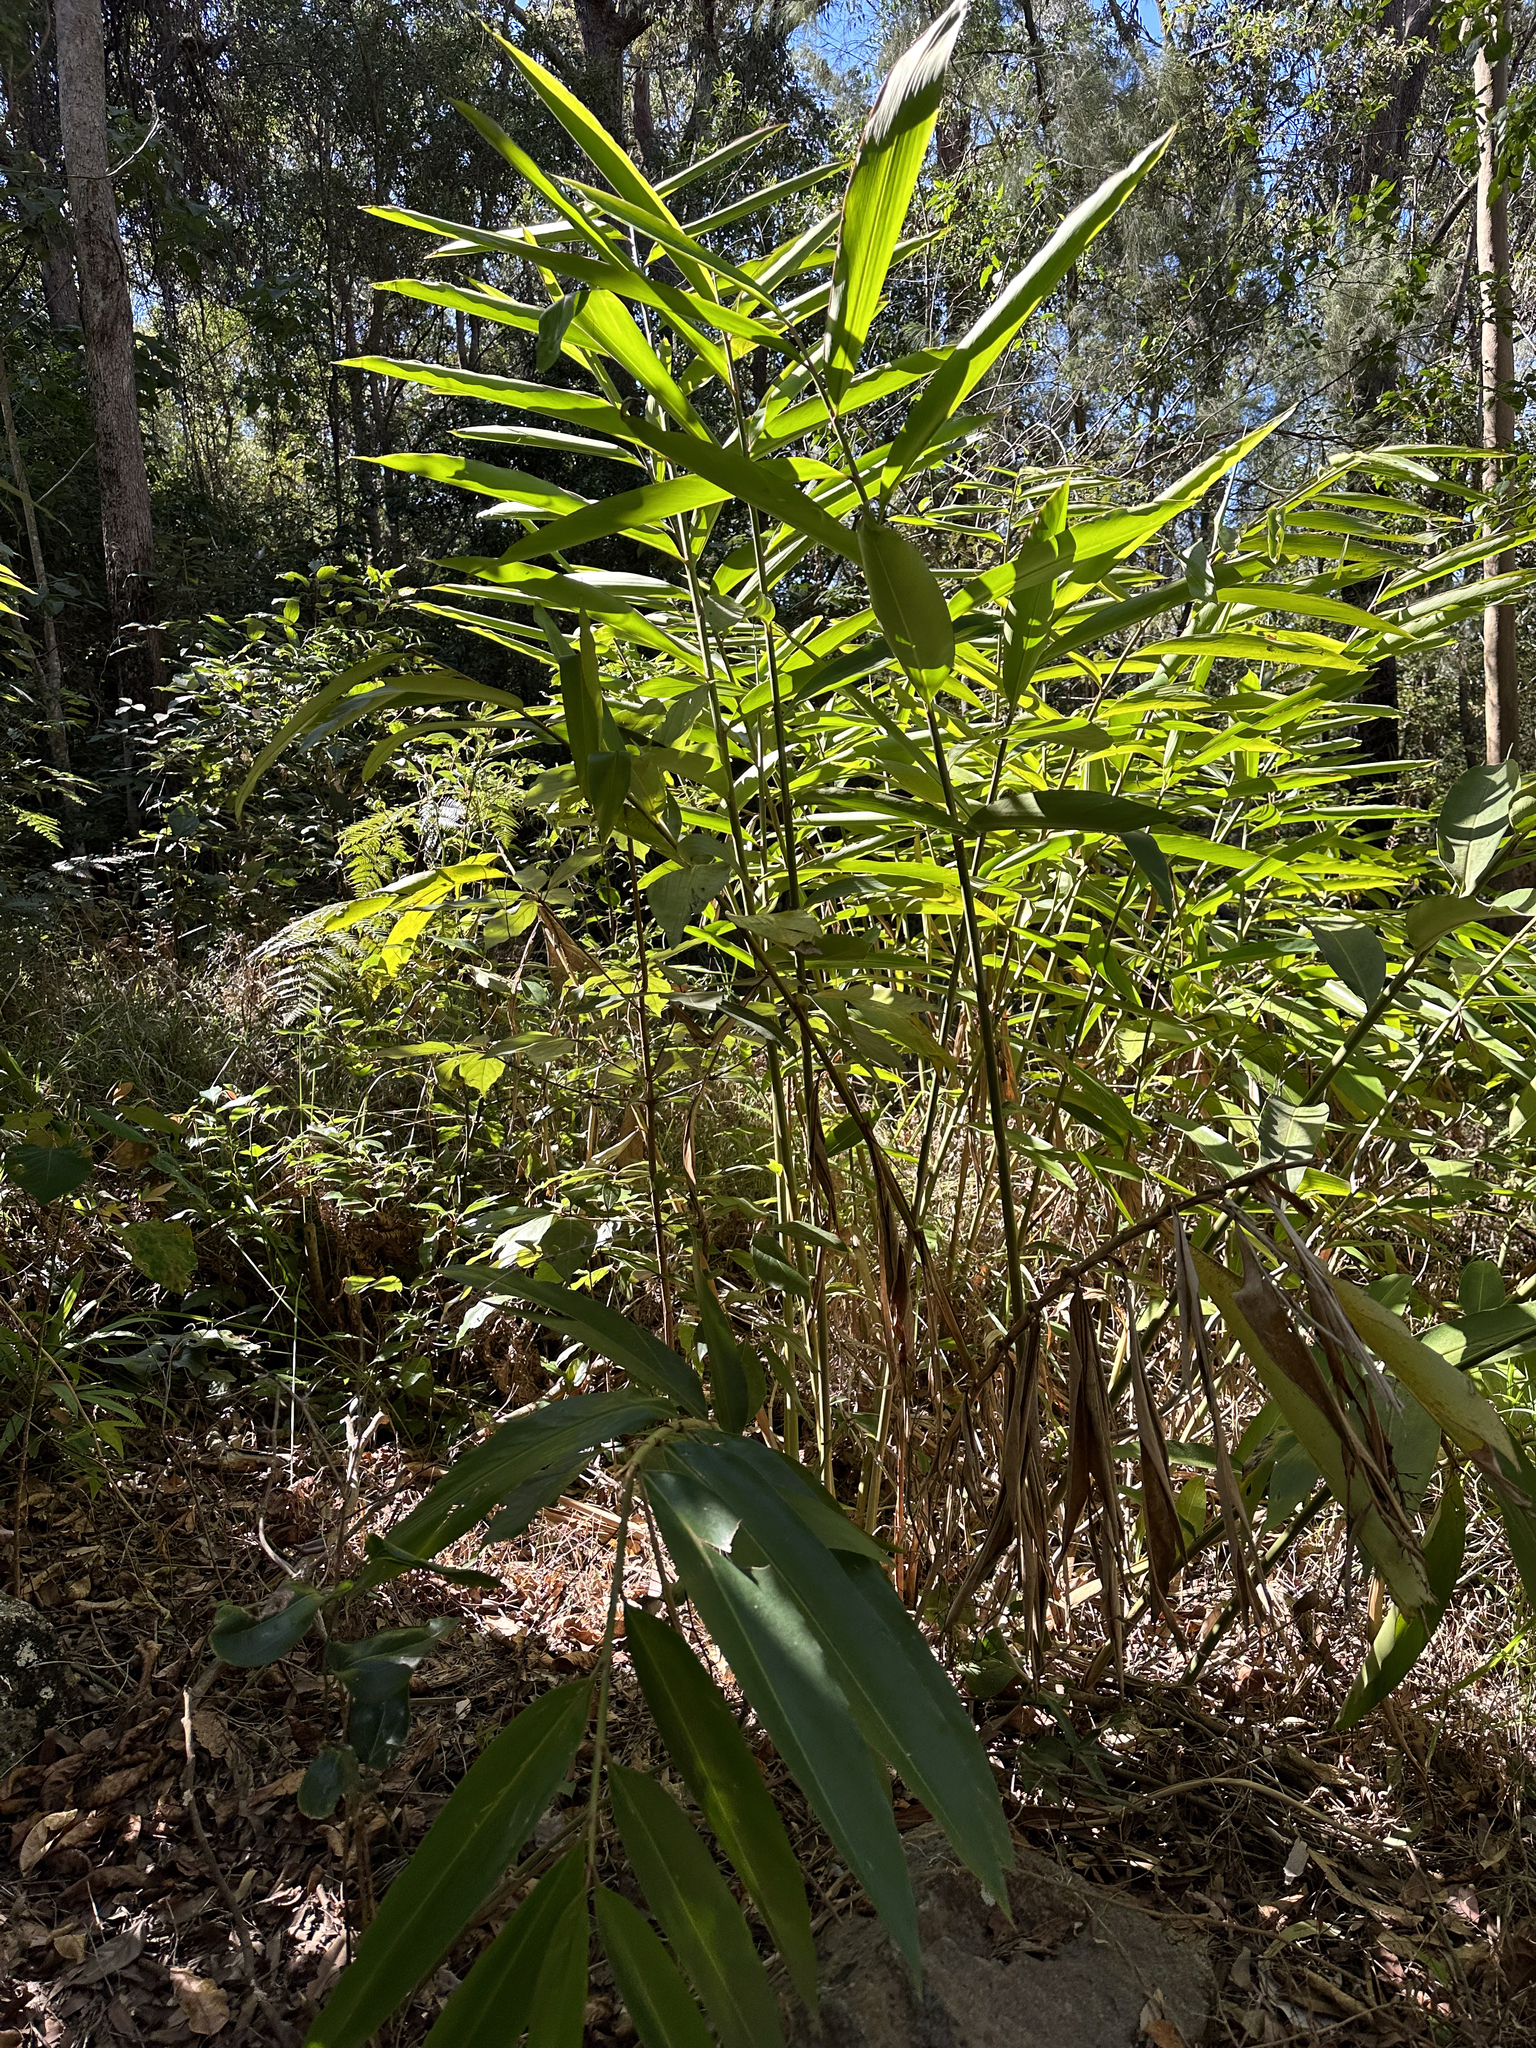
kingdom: Plantae
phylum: Tracheophyta
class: Liliopsida
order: Zingiberales
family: Zingiberaceae
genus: Alpinia
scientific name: Alpinia caerulea
